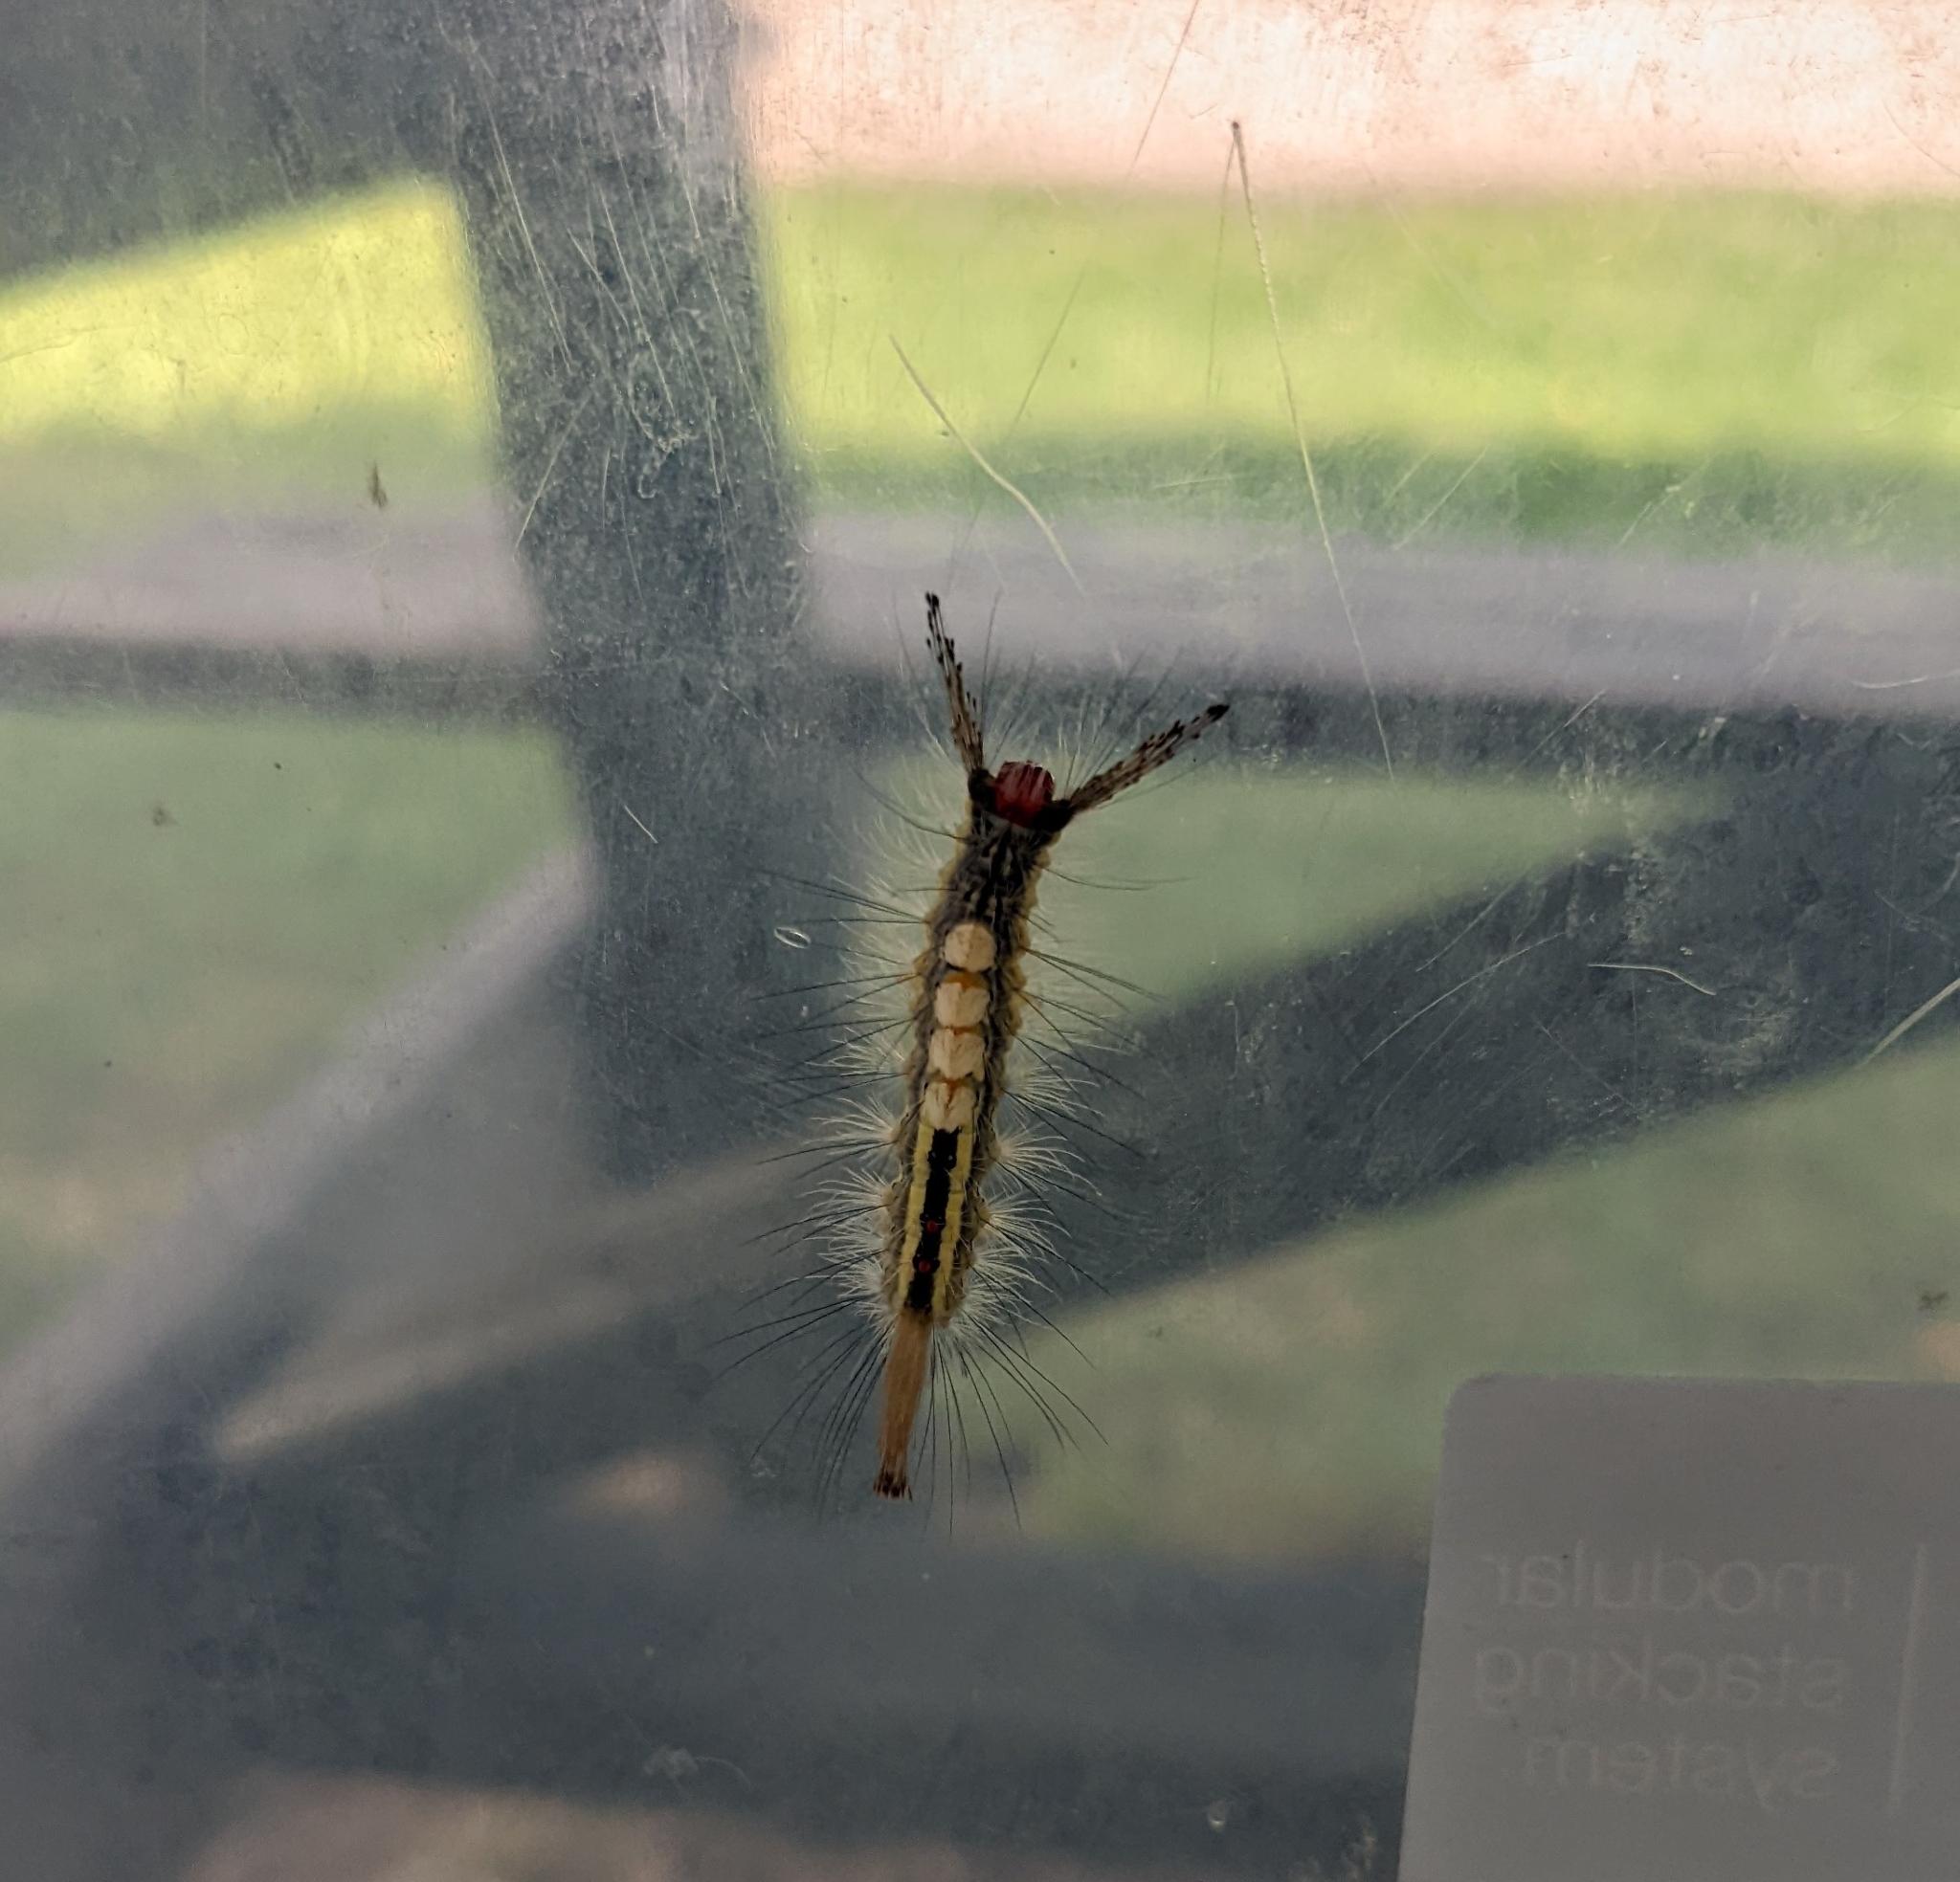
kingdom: Animalia
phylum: Arthropoda
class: Insecta
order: Lepidoptera
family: Erebidae
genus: Orgyia
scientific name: Orgyia leucostigma
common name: White-marked tussock moth
